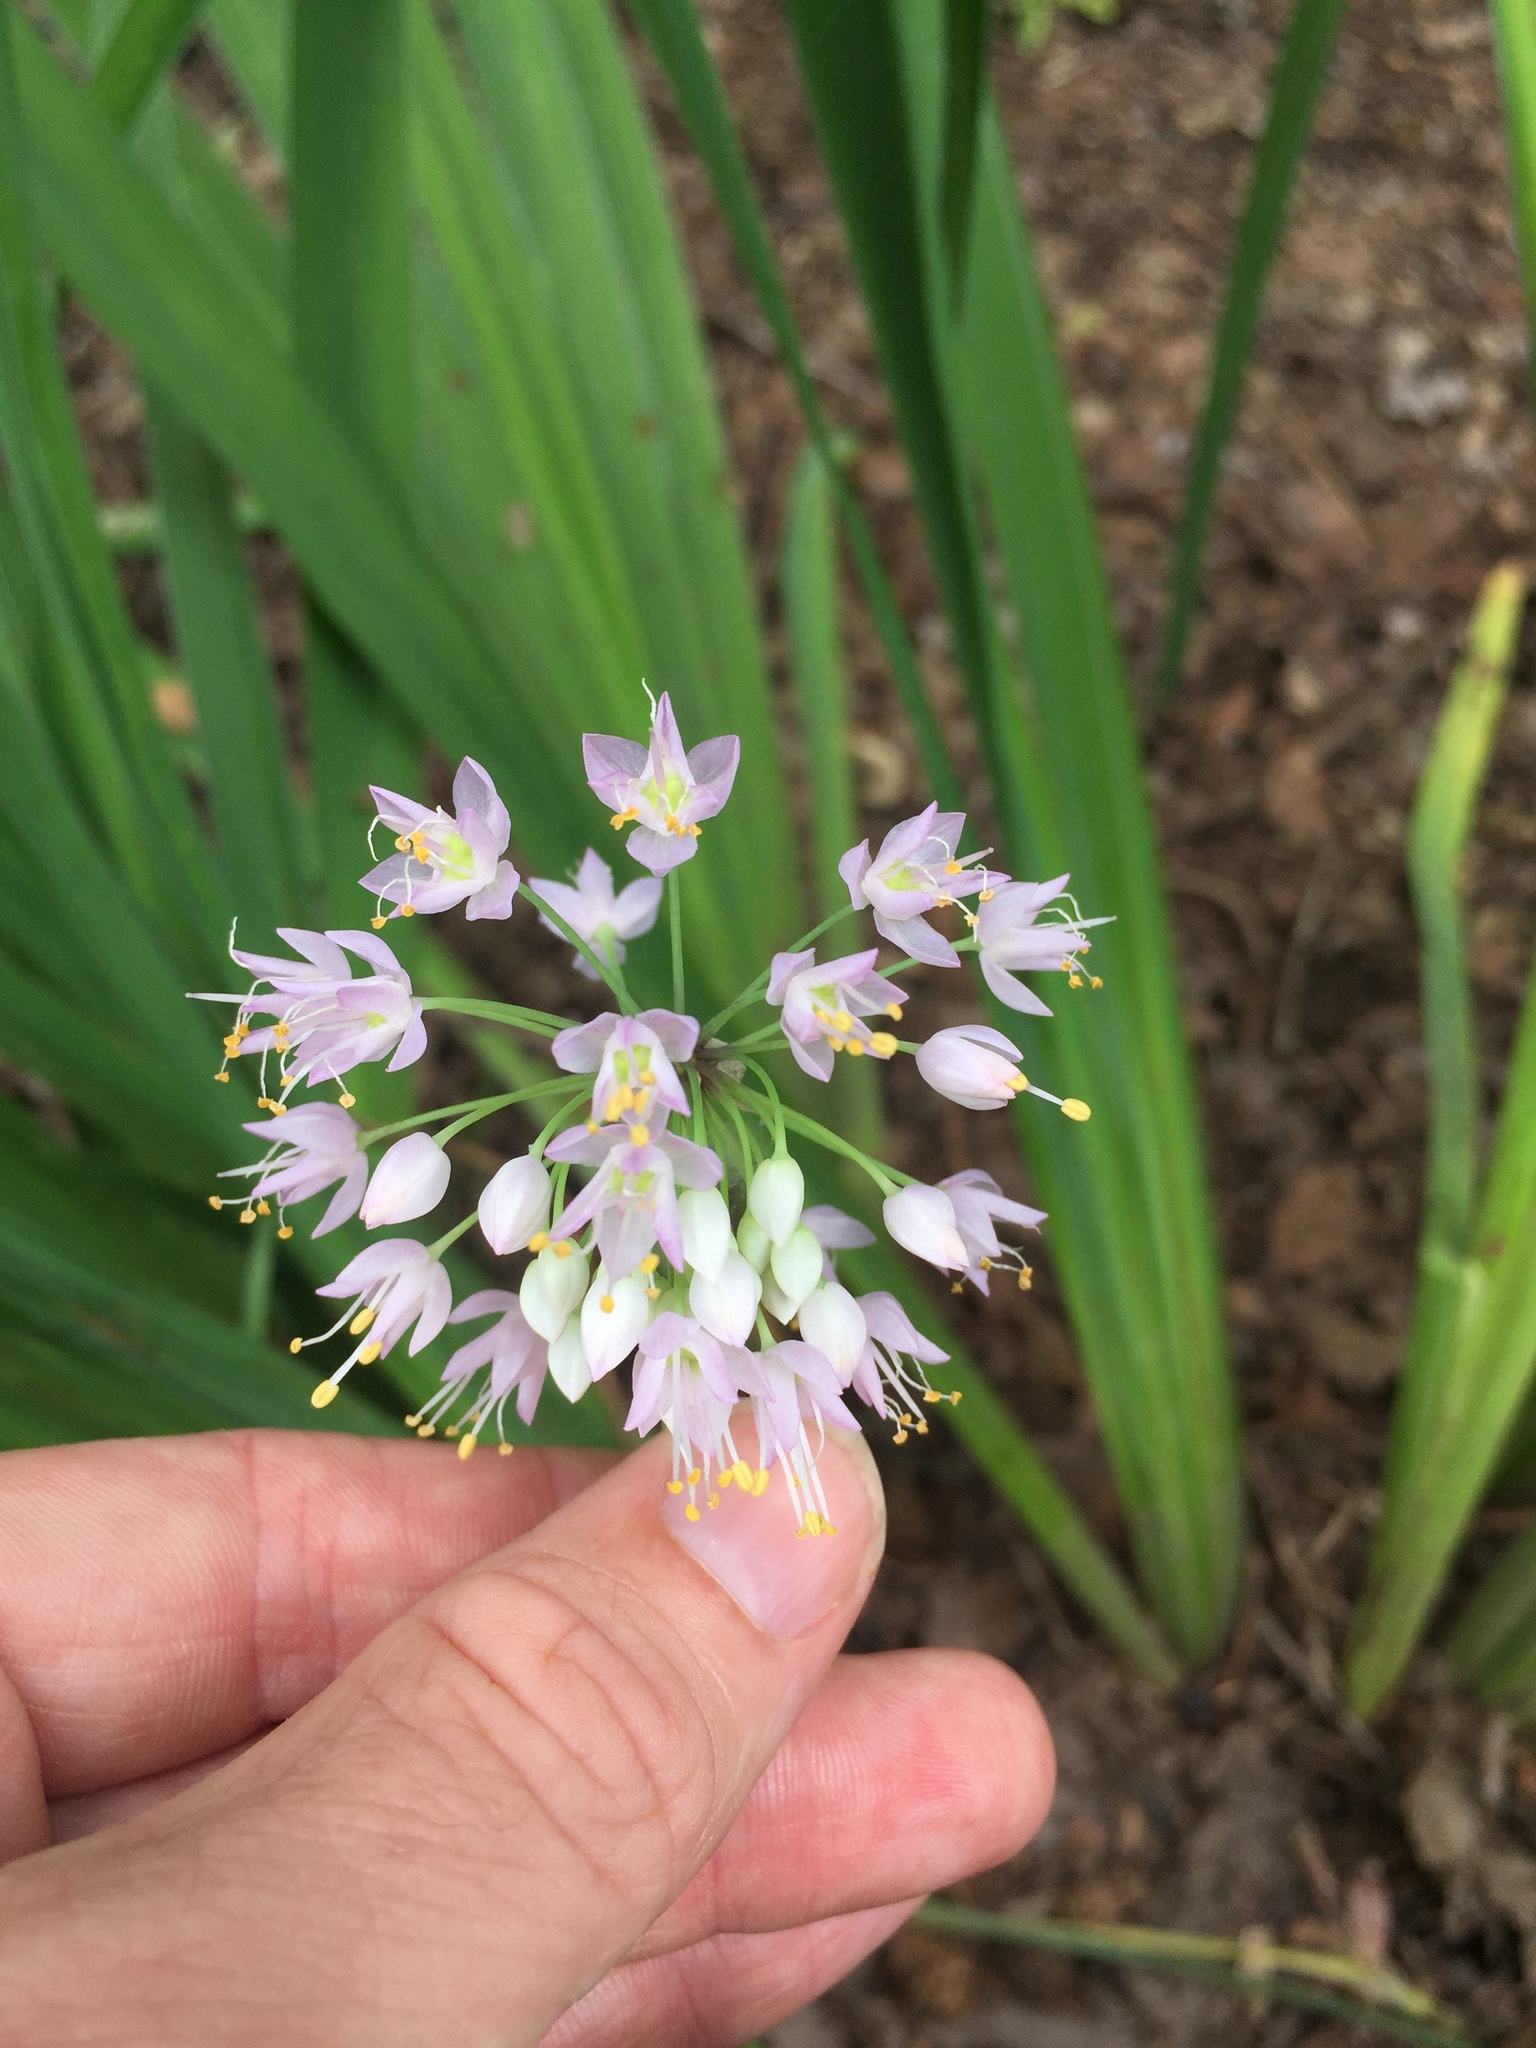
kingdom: Plantae
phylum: Tracheophyta
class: Liliopsida
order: Asparagales
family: Amaryllidaceae
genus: Allium
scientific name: Allium cernuum
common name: Nodding onion
